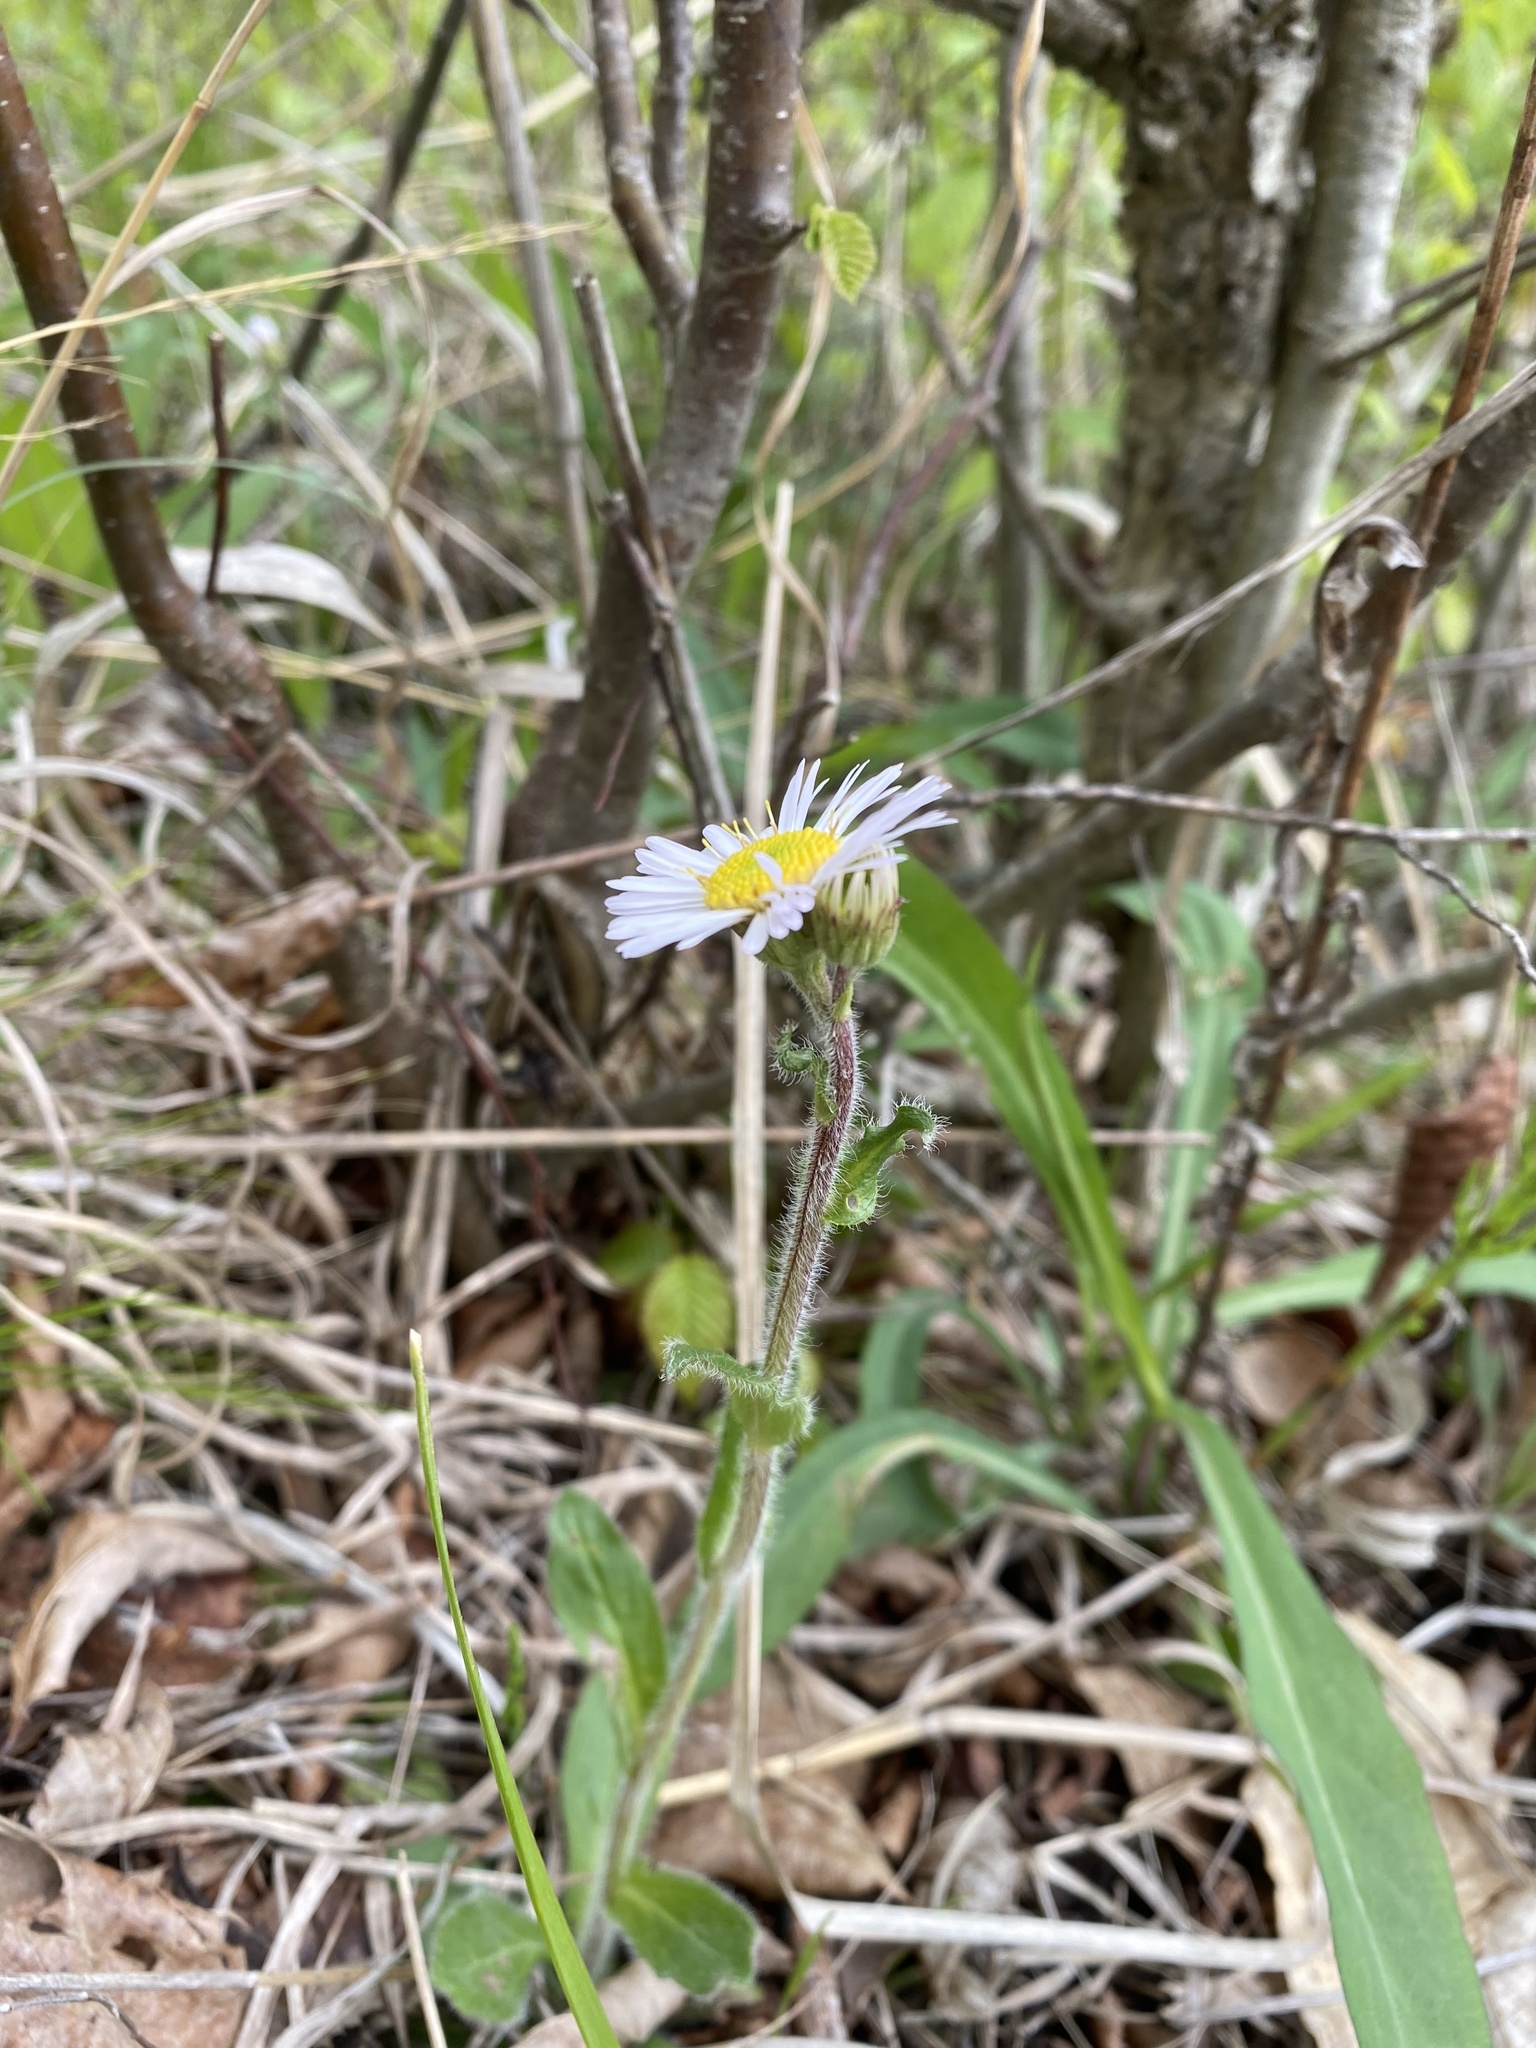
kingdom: Plantae
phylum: Tracheophyta
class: Magnoliopsida
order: Asterales
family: Asteraceae
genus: Erigeron
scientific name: Erigeron pulchellus
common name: Hairy fleabane
